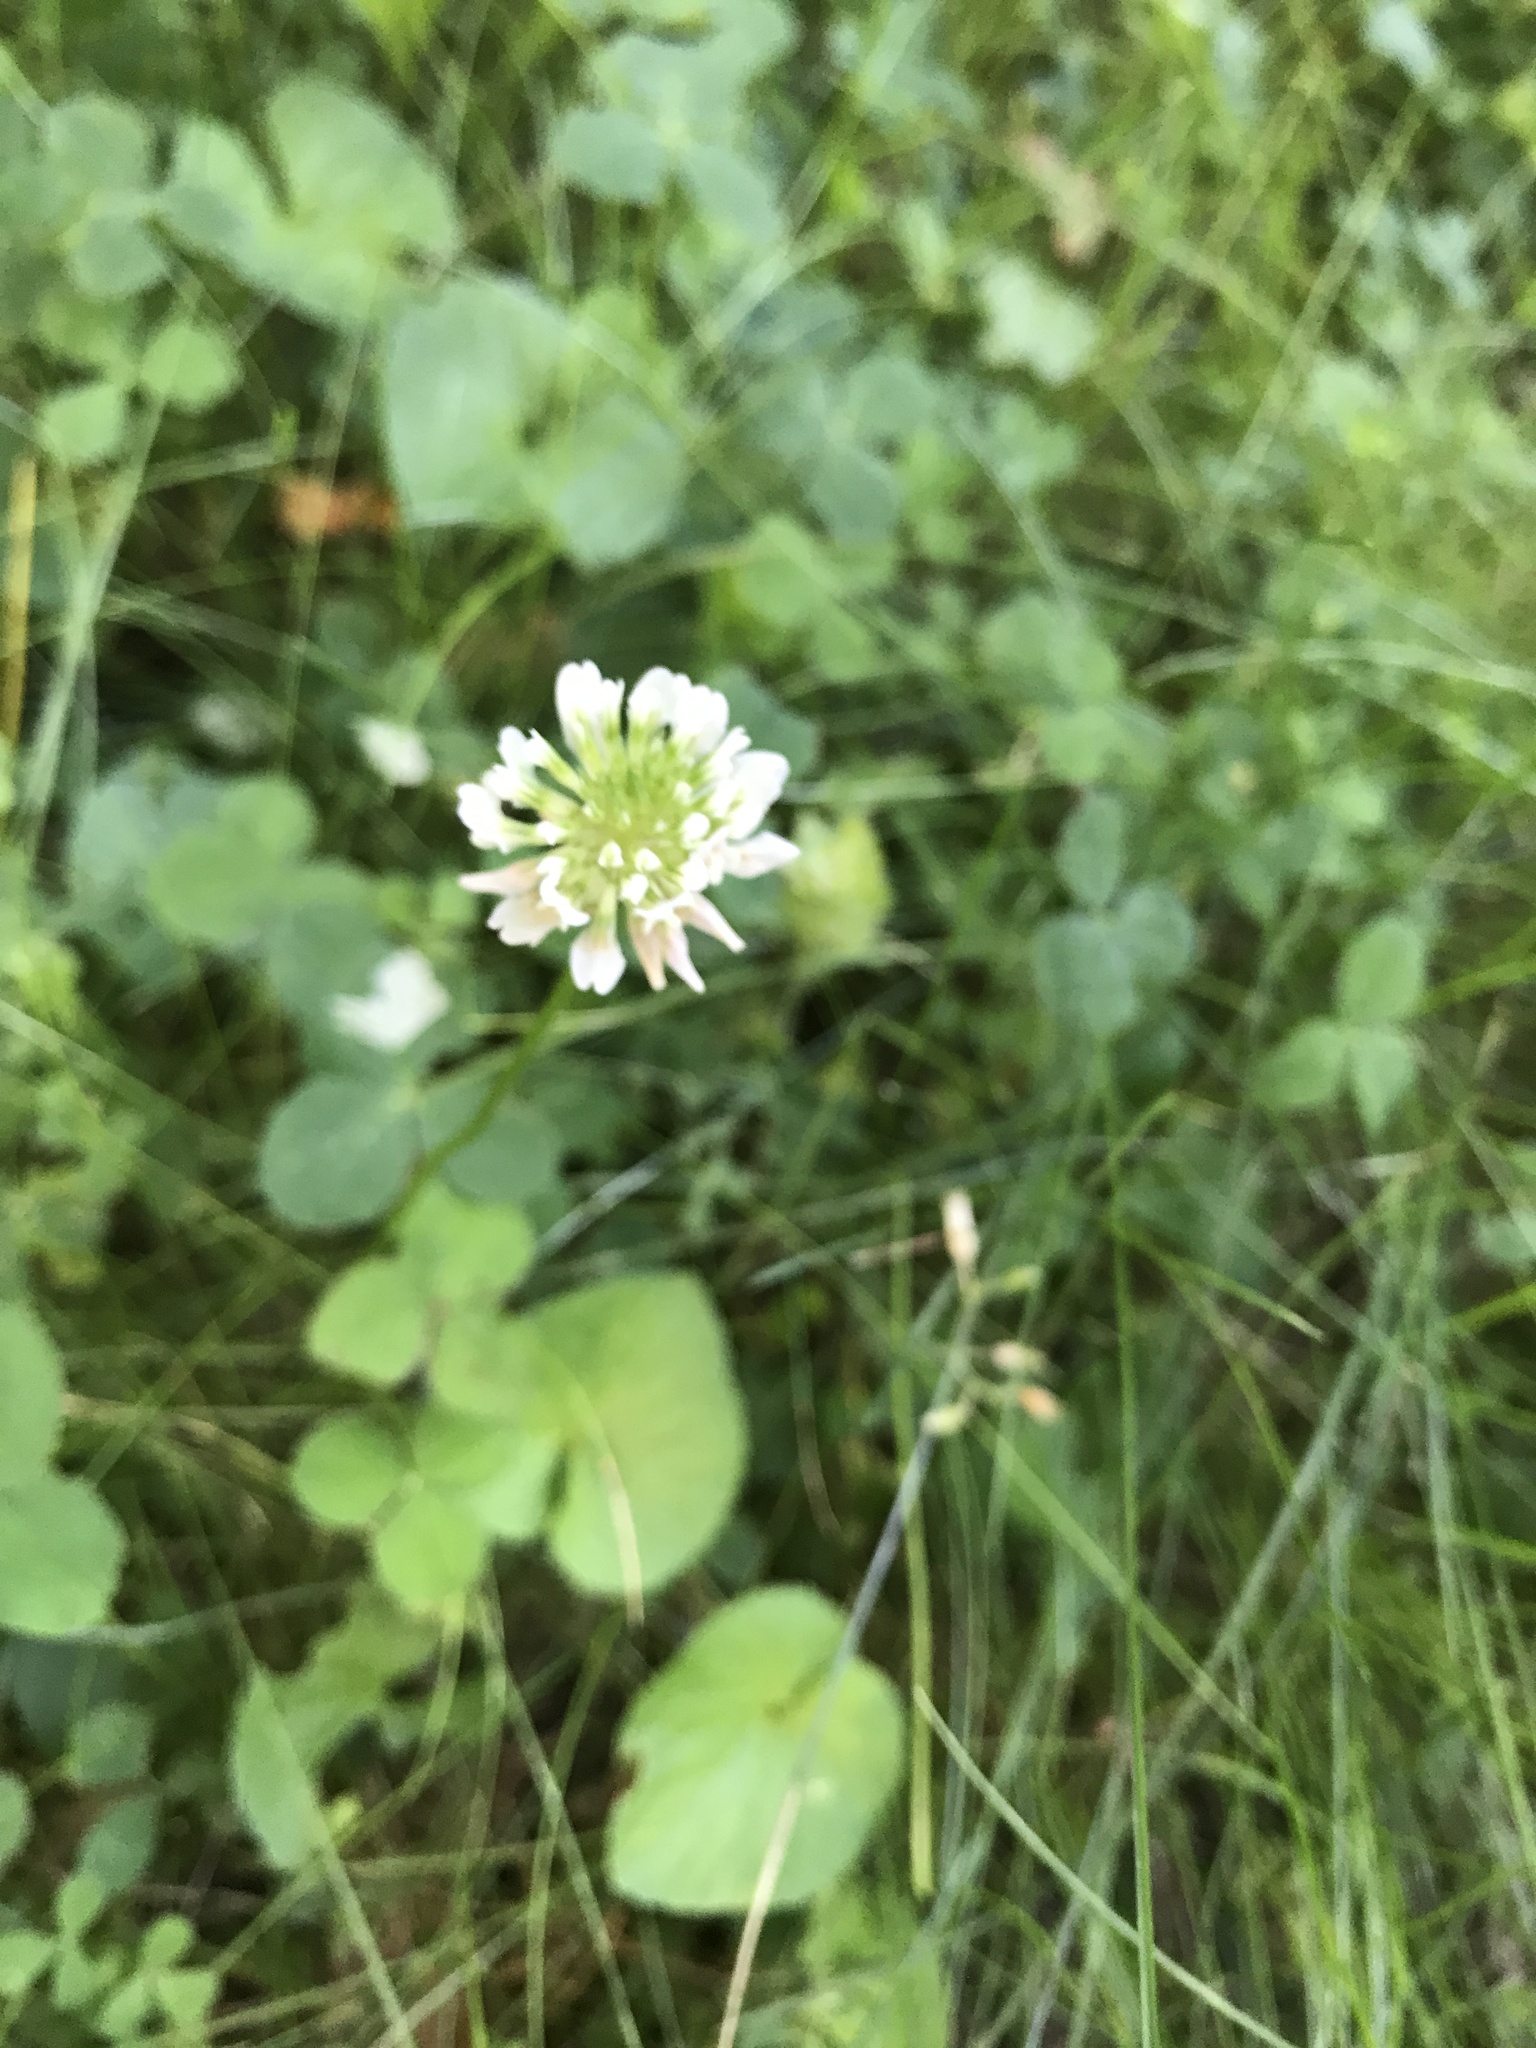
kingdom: Plantae
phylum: Tracheophyta
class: Magnoliopsida
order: Fabales
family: Fabaceae
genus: Trifolium
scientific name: Trifolium repens
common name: White clover
